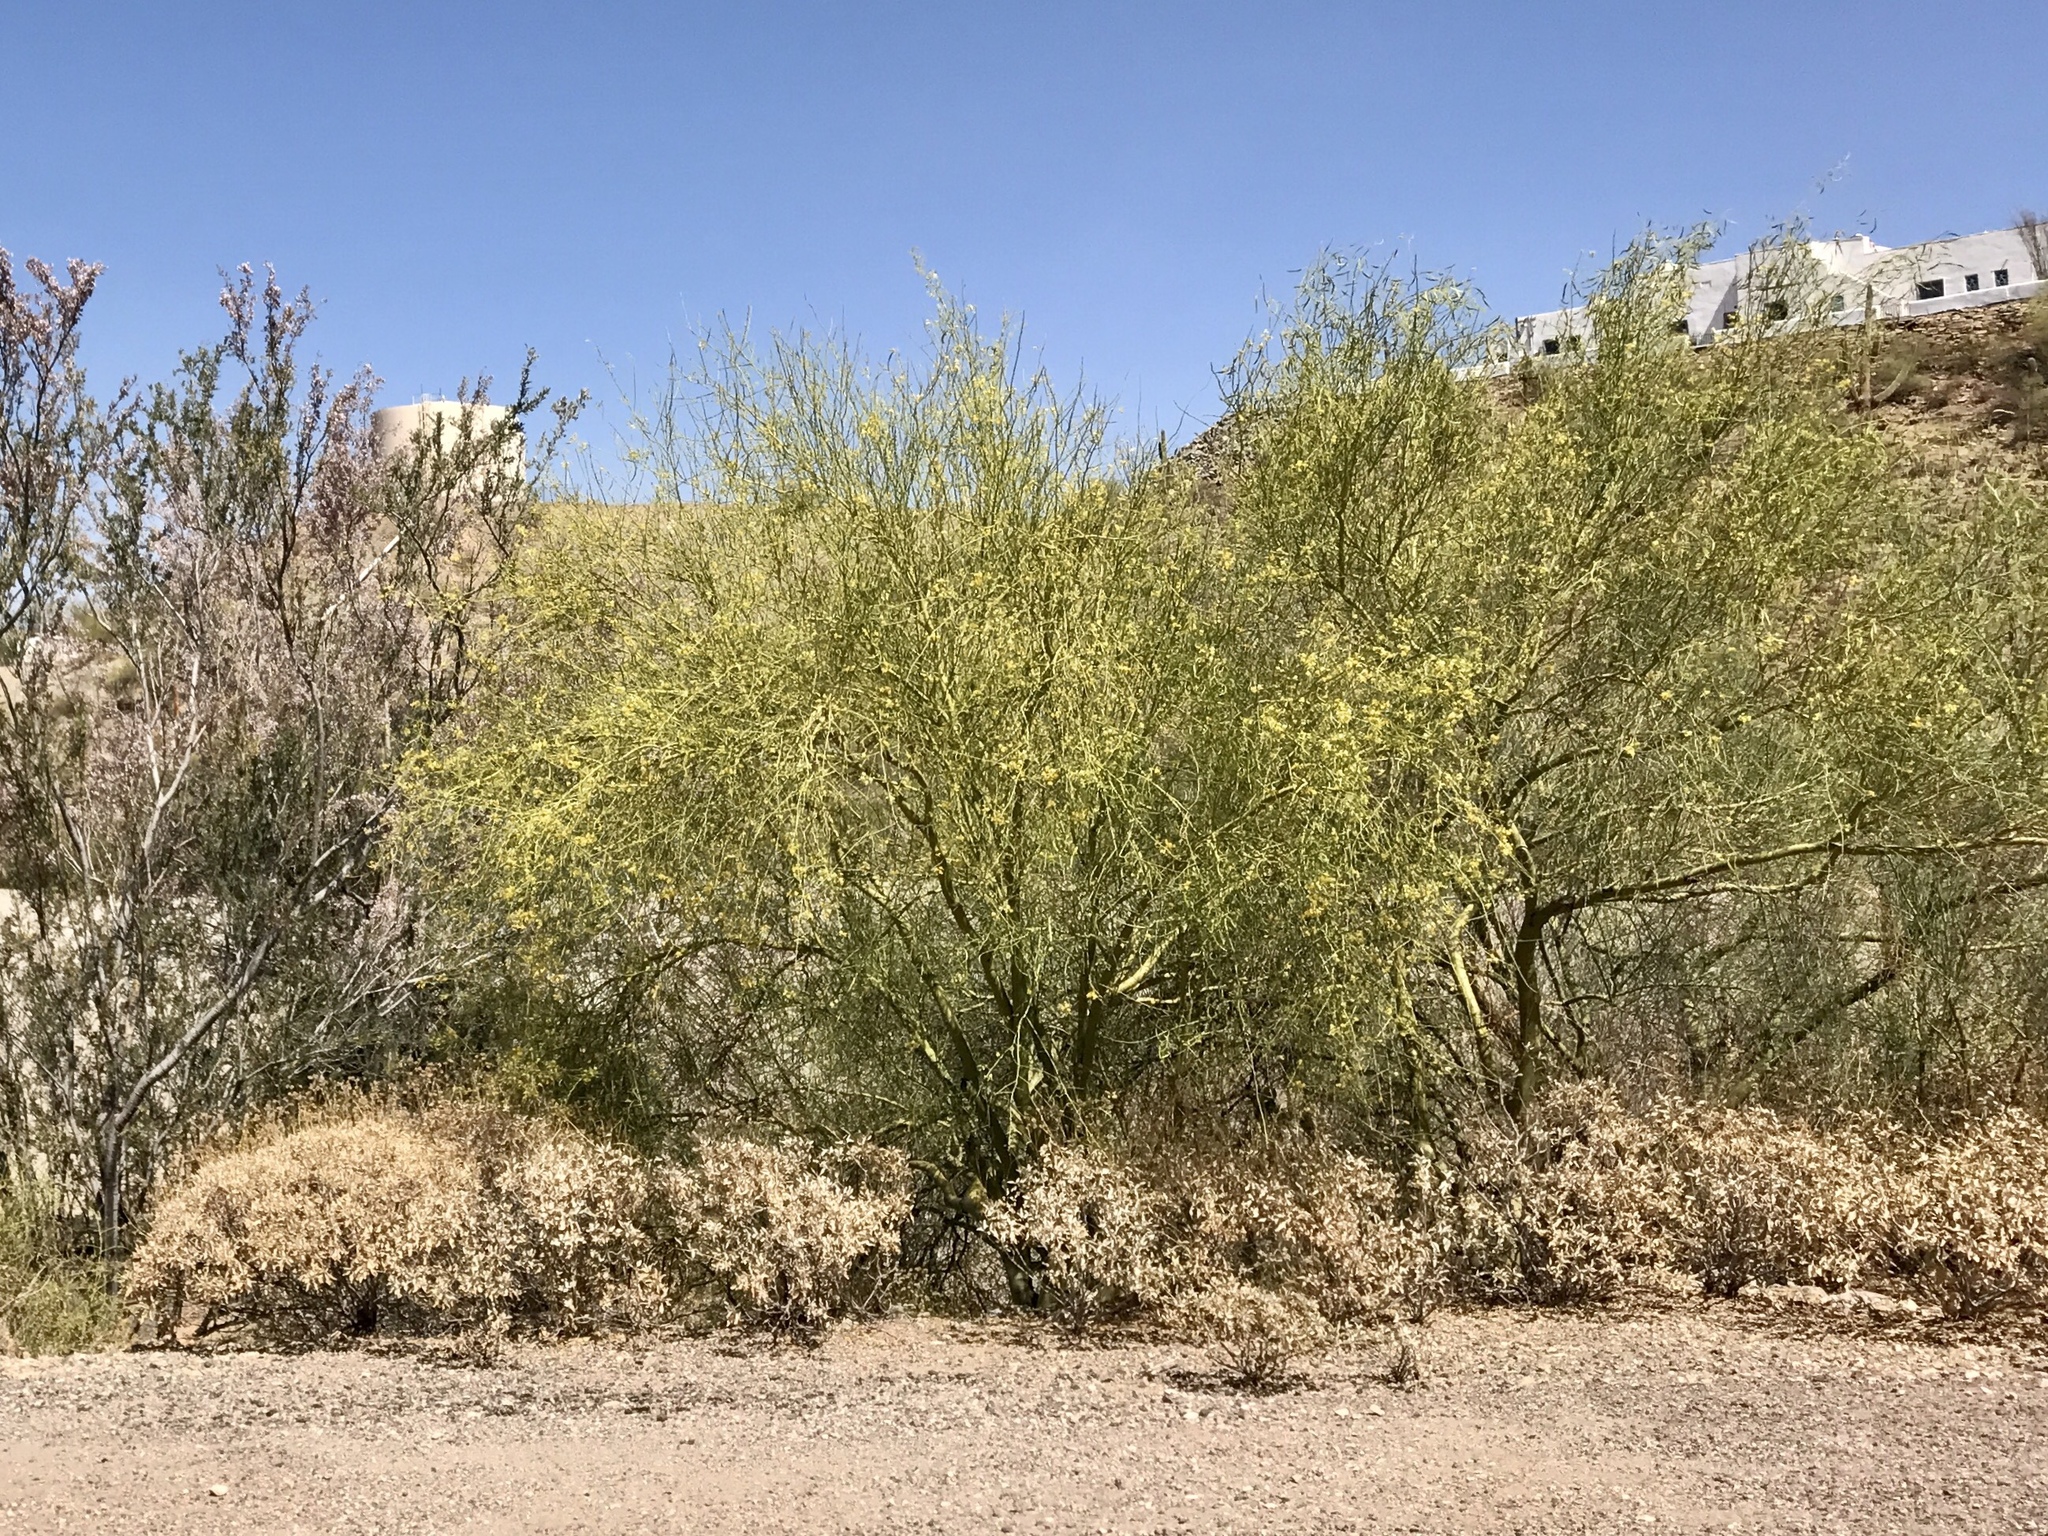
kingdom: Plantae
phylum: Tracheophyta
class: Magnoliopsida
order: Fabales
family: Fabaceae
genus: Parkinsonia
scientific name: Parkinsonia microphylla
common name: Yellow paloverde
